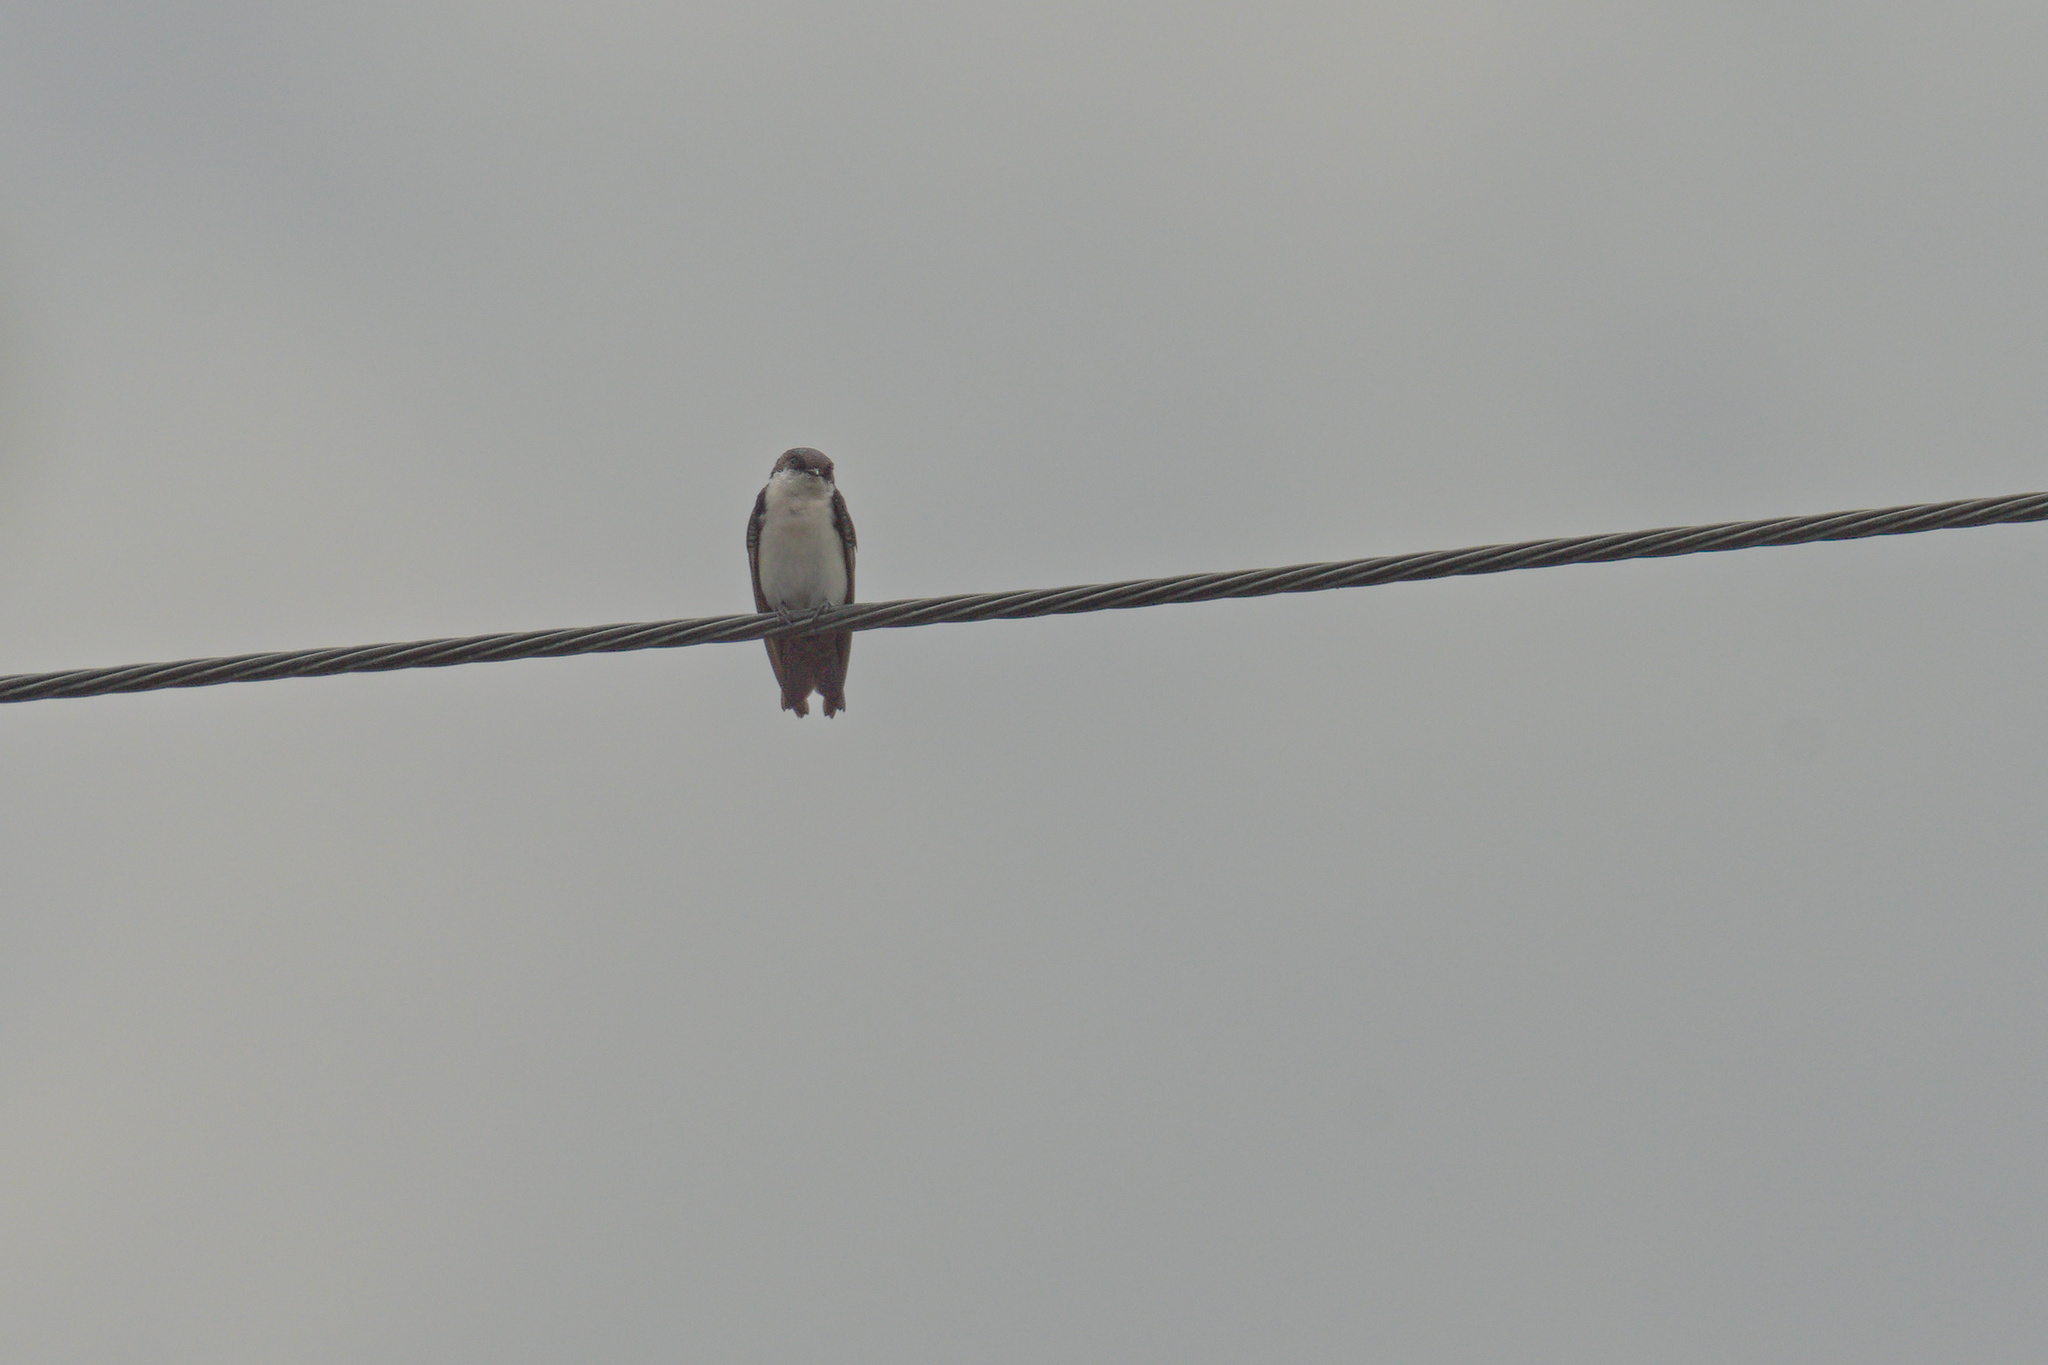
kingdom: Animalia
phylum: Chordata
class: Aves
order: Passeriformes
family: Hirundinidae
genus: Notiochelidon
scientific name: Notiochelidon cyanoleuca
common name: Blue-and-white swallow
